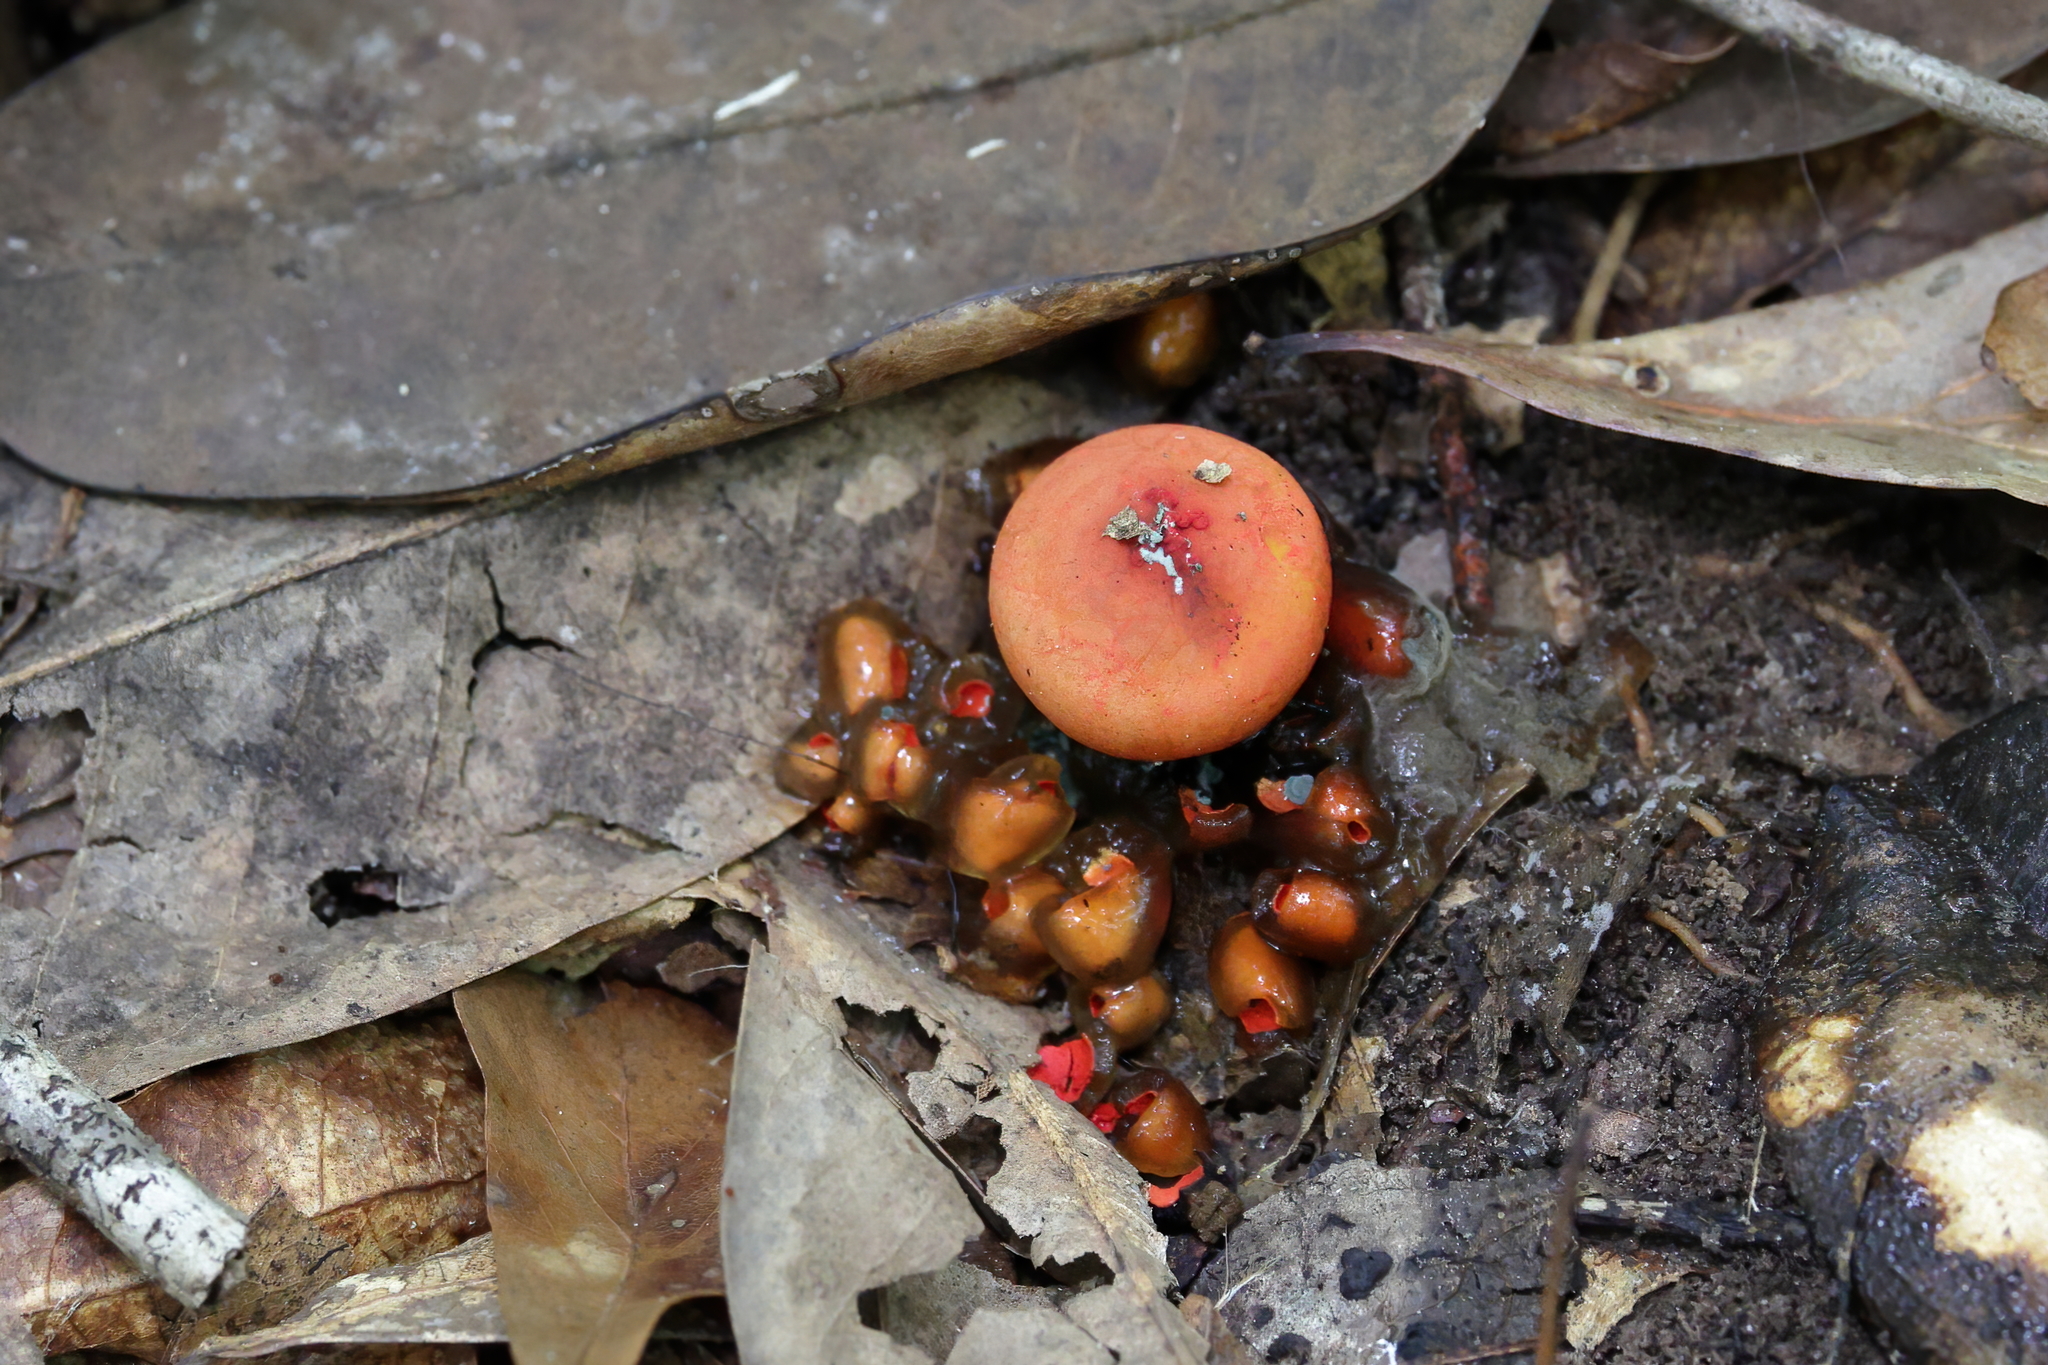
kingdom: Fungi
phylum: Basidiomycota
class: Agaricomycetes
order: Boletales
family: Calostomataceae
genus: Calostoma
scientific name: Calostoma cinnabarinum
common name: Stalked puffball-in-aspic
